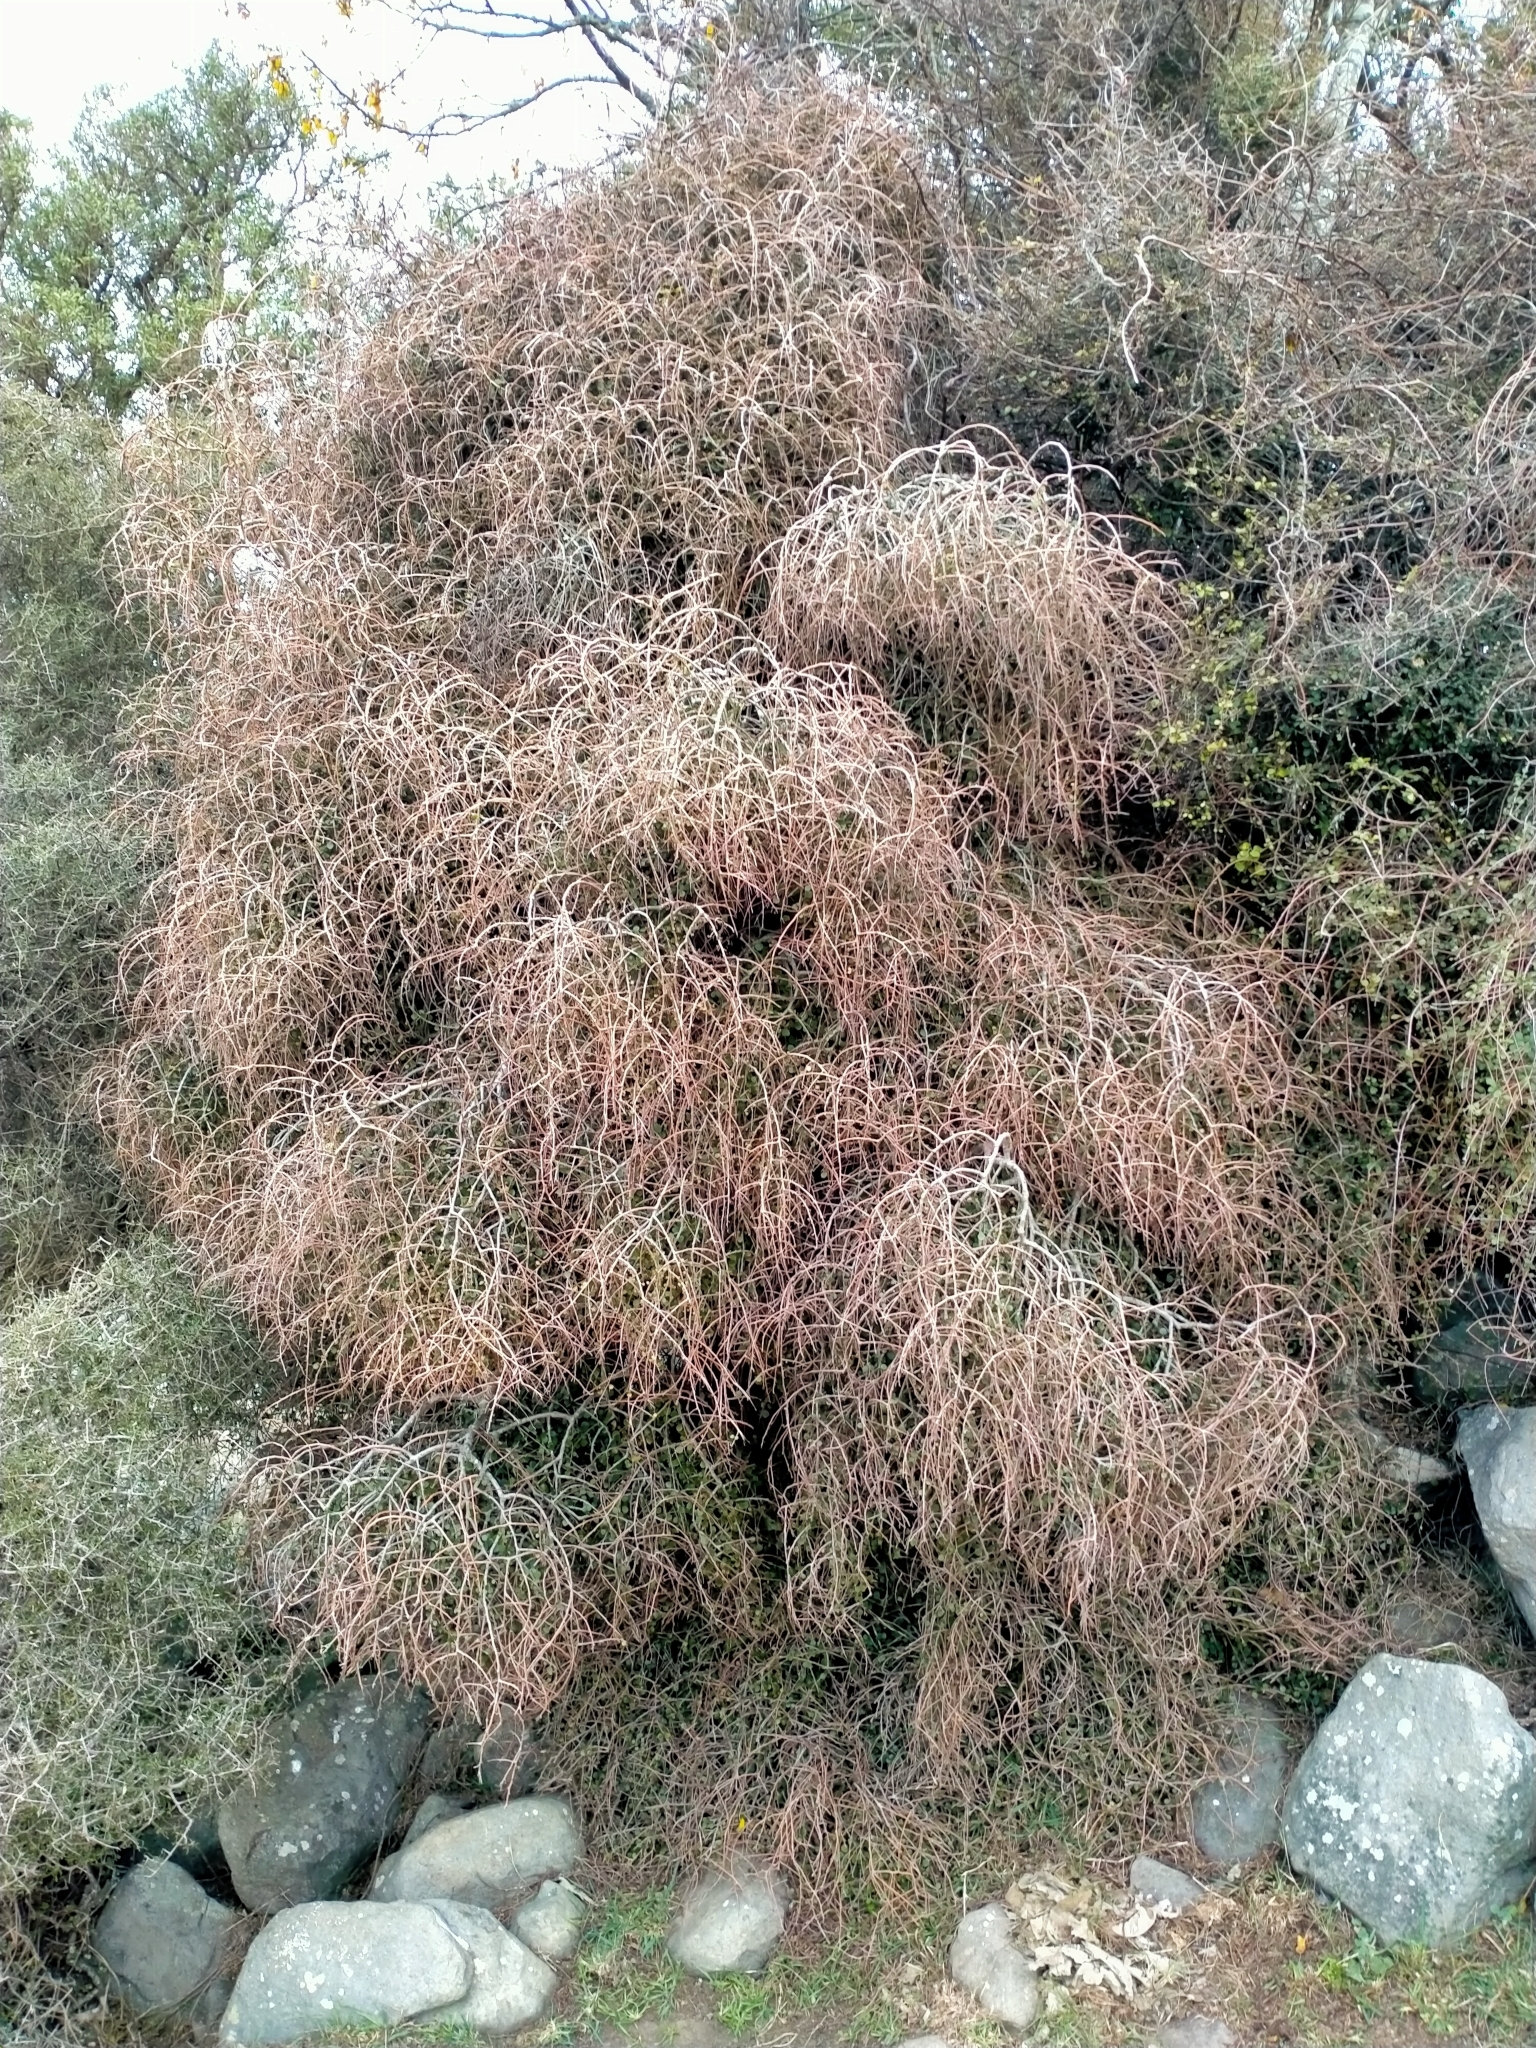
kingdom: Plantae
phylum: Tracheophyta
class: Magnoliopsida
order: Ericales
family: Primulaceae
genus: Myrsine
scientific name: Myrsine divaricata
